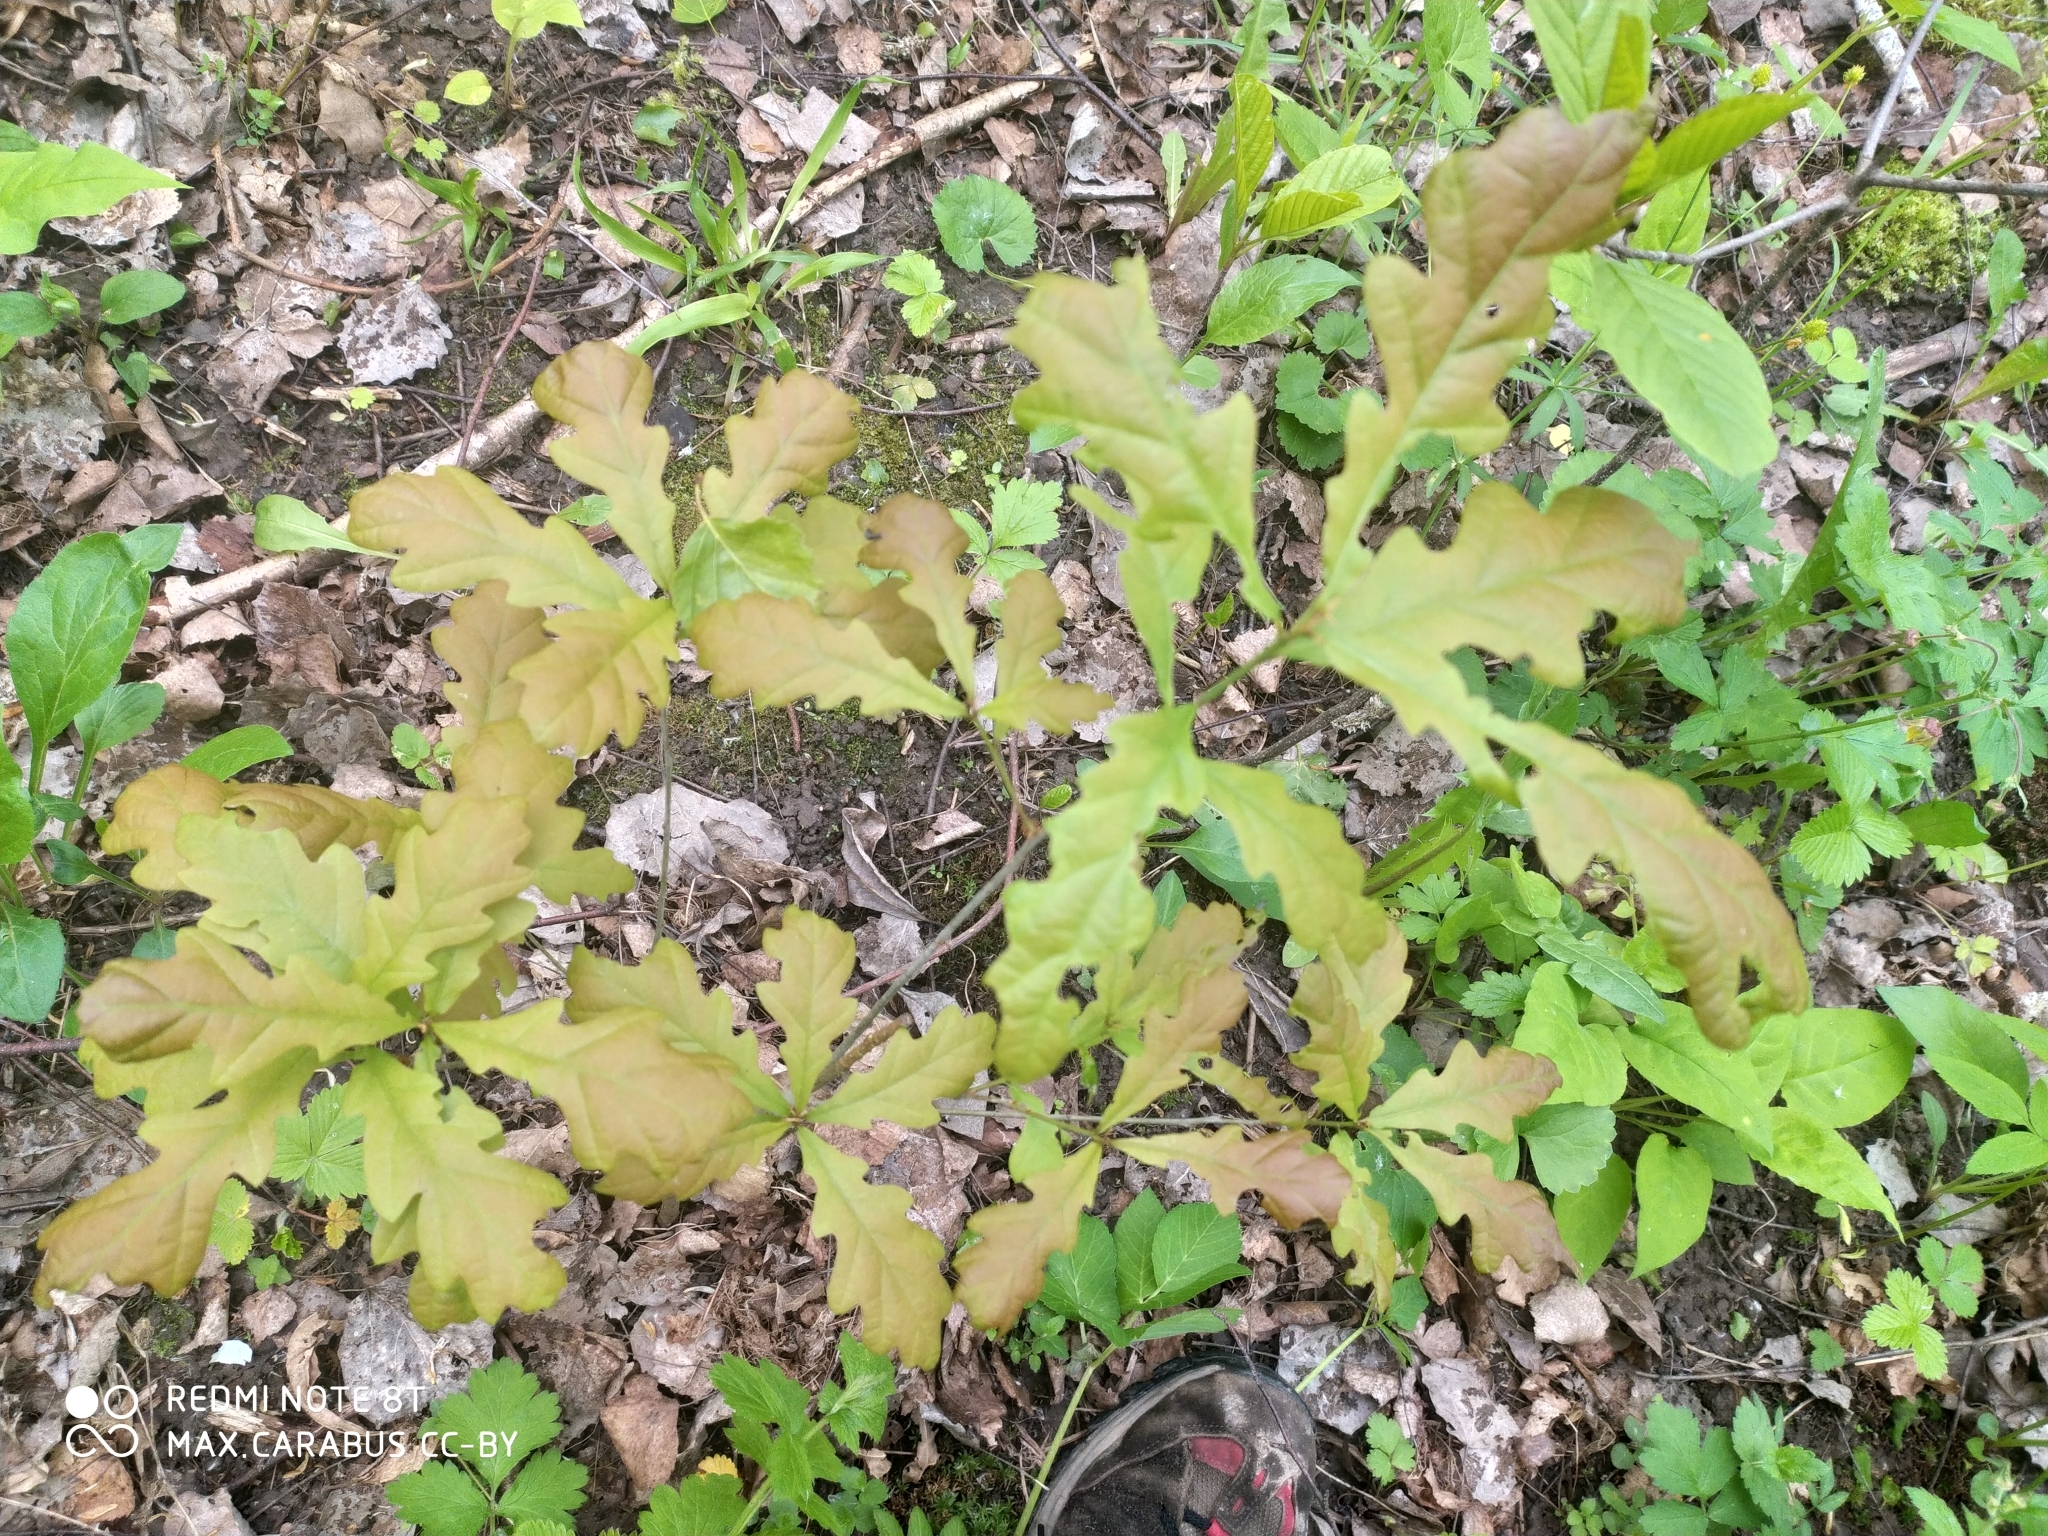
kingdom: Plantae
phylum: Tracheophyta
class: Magnoliopsida
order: Fagales
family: Fagaceae
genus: Quercus
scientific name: Quercus robur
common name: Pedunculate oak
